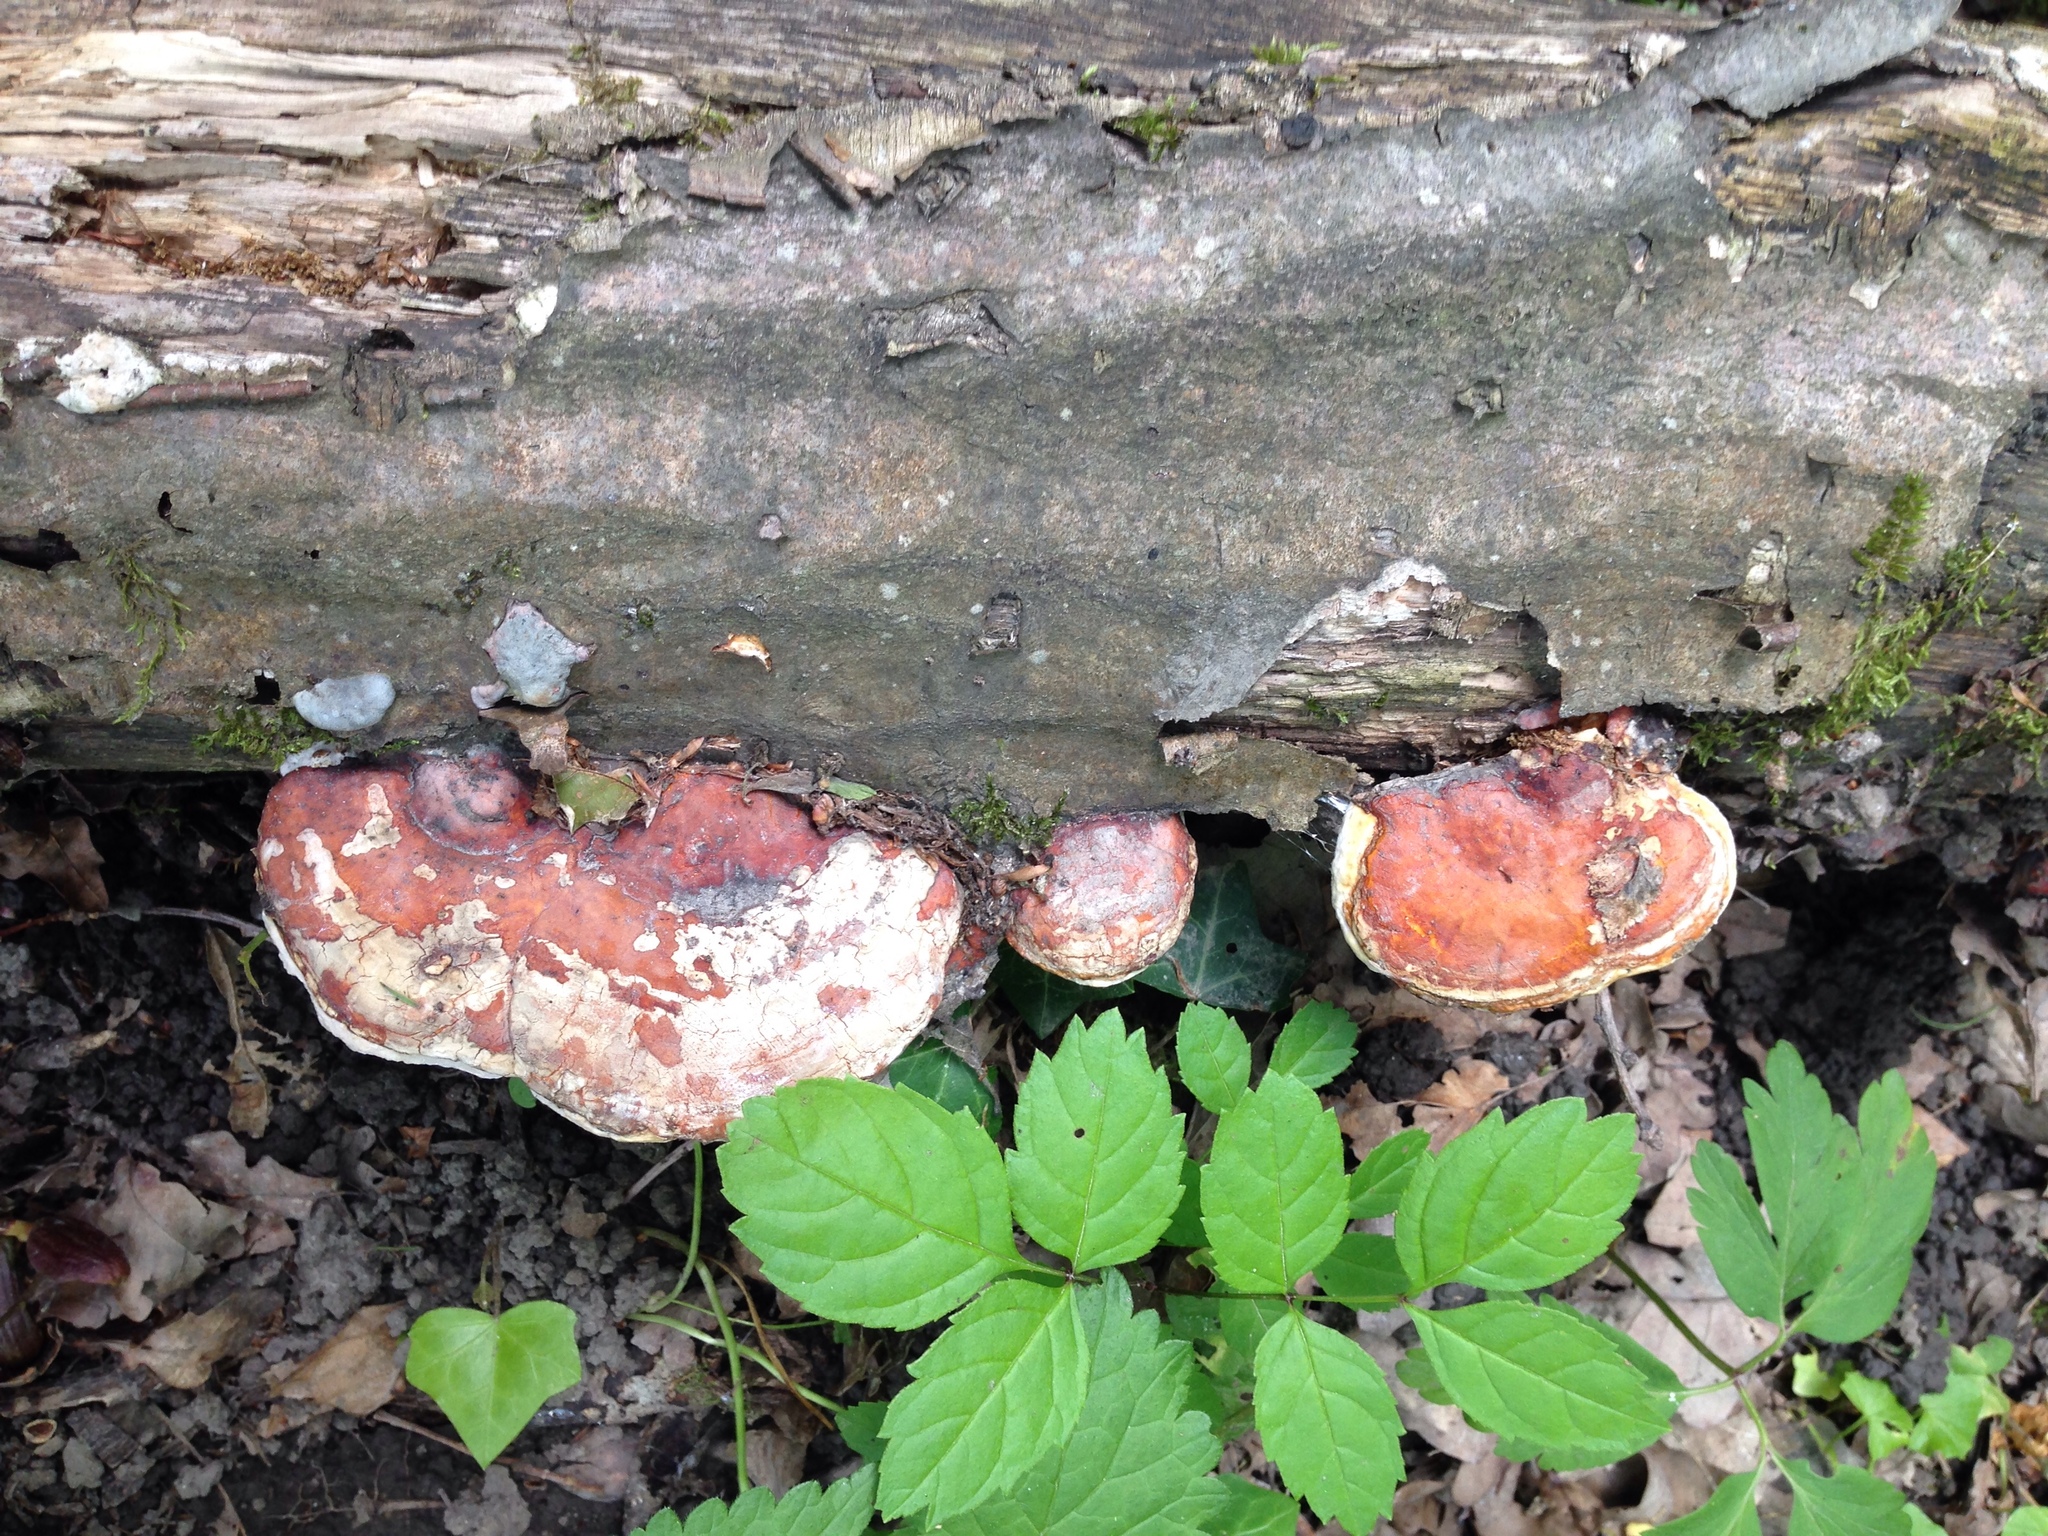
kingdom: Fungi
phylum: Basidiomycota
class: Agaricomycetes
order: Polyporales
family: Fomitopsidaceae
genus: Fomitopsis
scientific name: Fomitopsis pinicola
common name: Red-belted bracket
